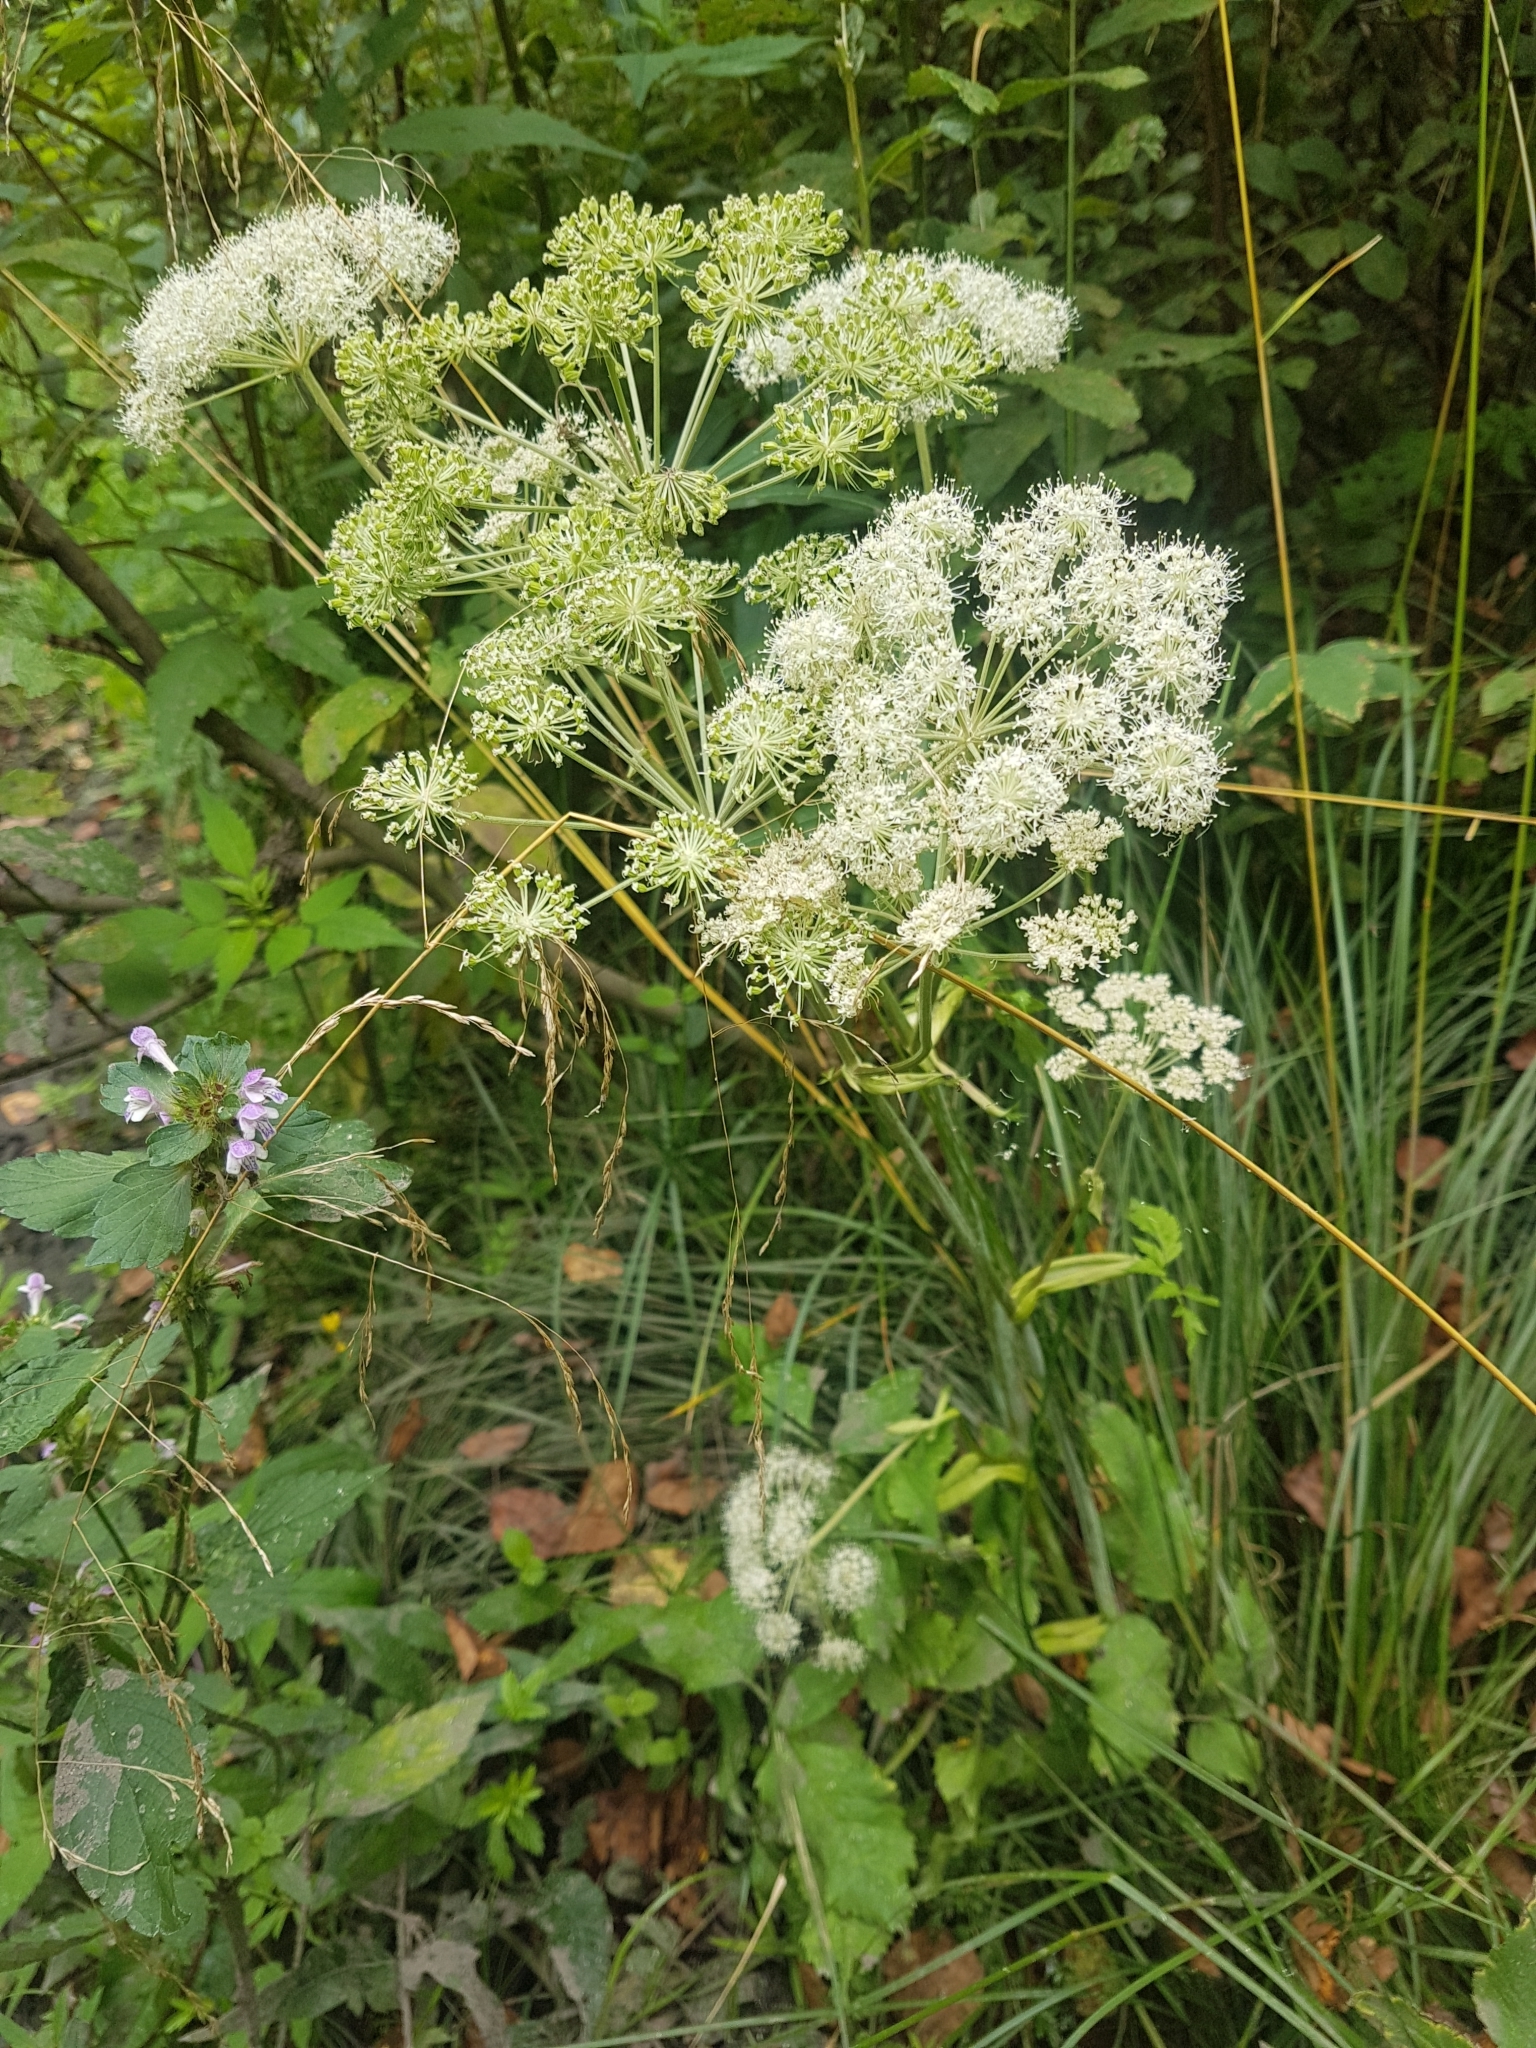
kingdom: Plantae
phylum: Tracheophyta
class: Magnoliopsida
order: Apiales
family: Apiaceae
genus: Angelica
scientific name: Angelica sylvestris
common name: Wild angelica
